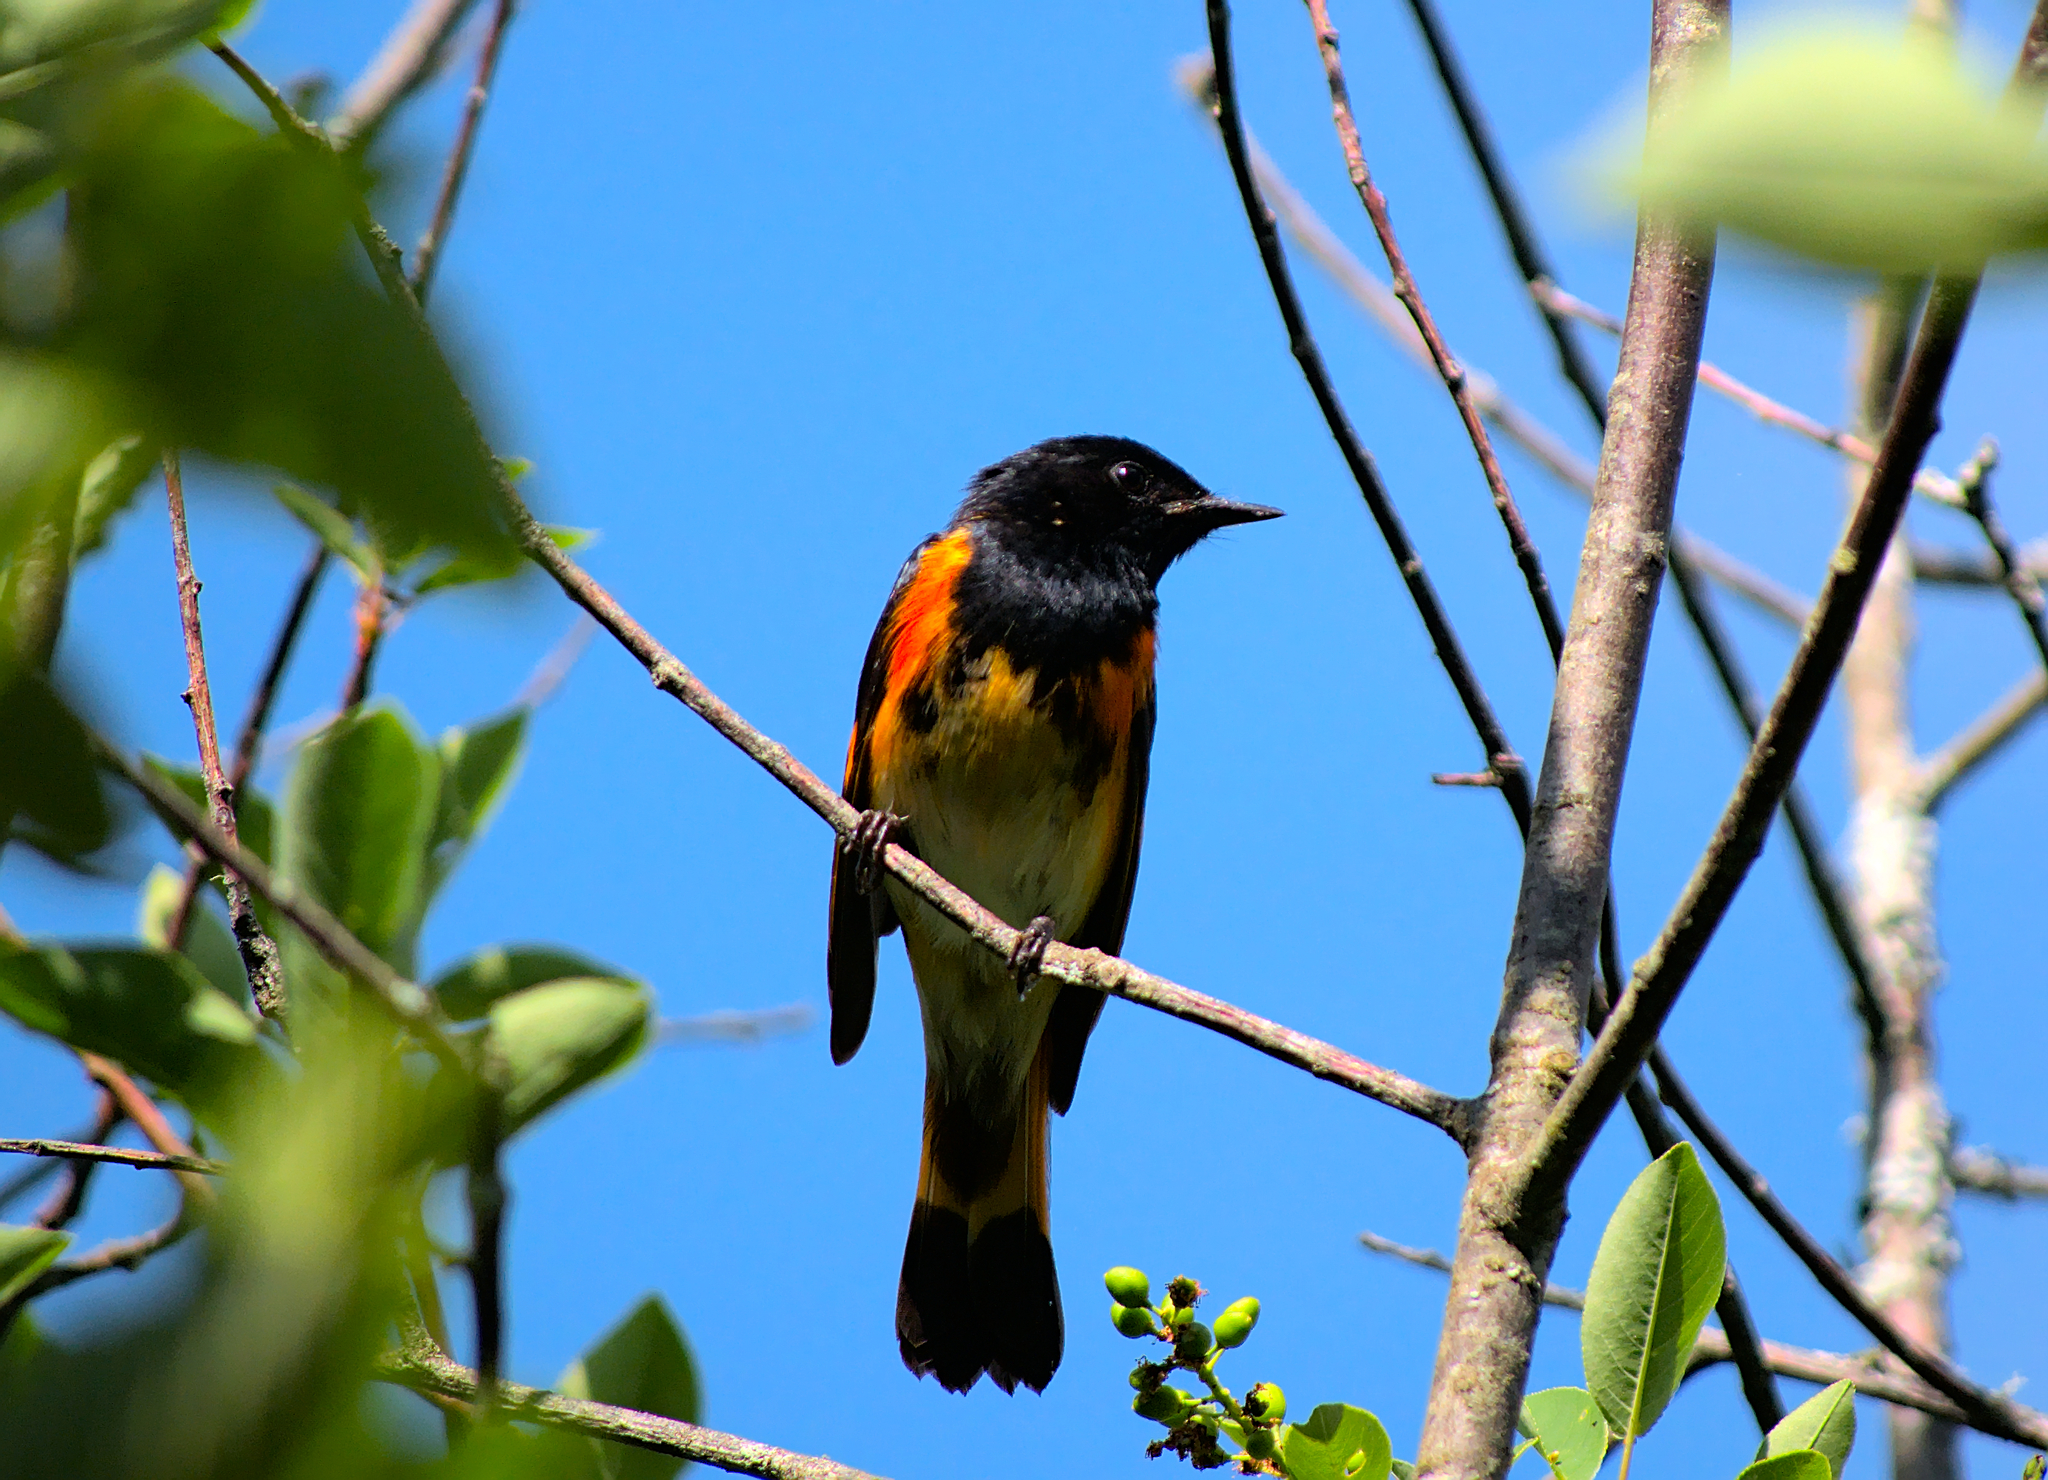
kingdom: Animalia
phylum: Chordata
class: Aves
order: Passeriformes
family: Parulidae
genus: Setophaga
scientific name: Setophaga ruticilla
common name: American redstart
